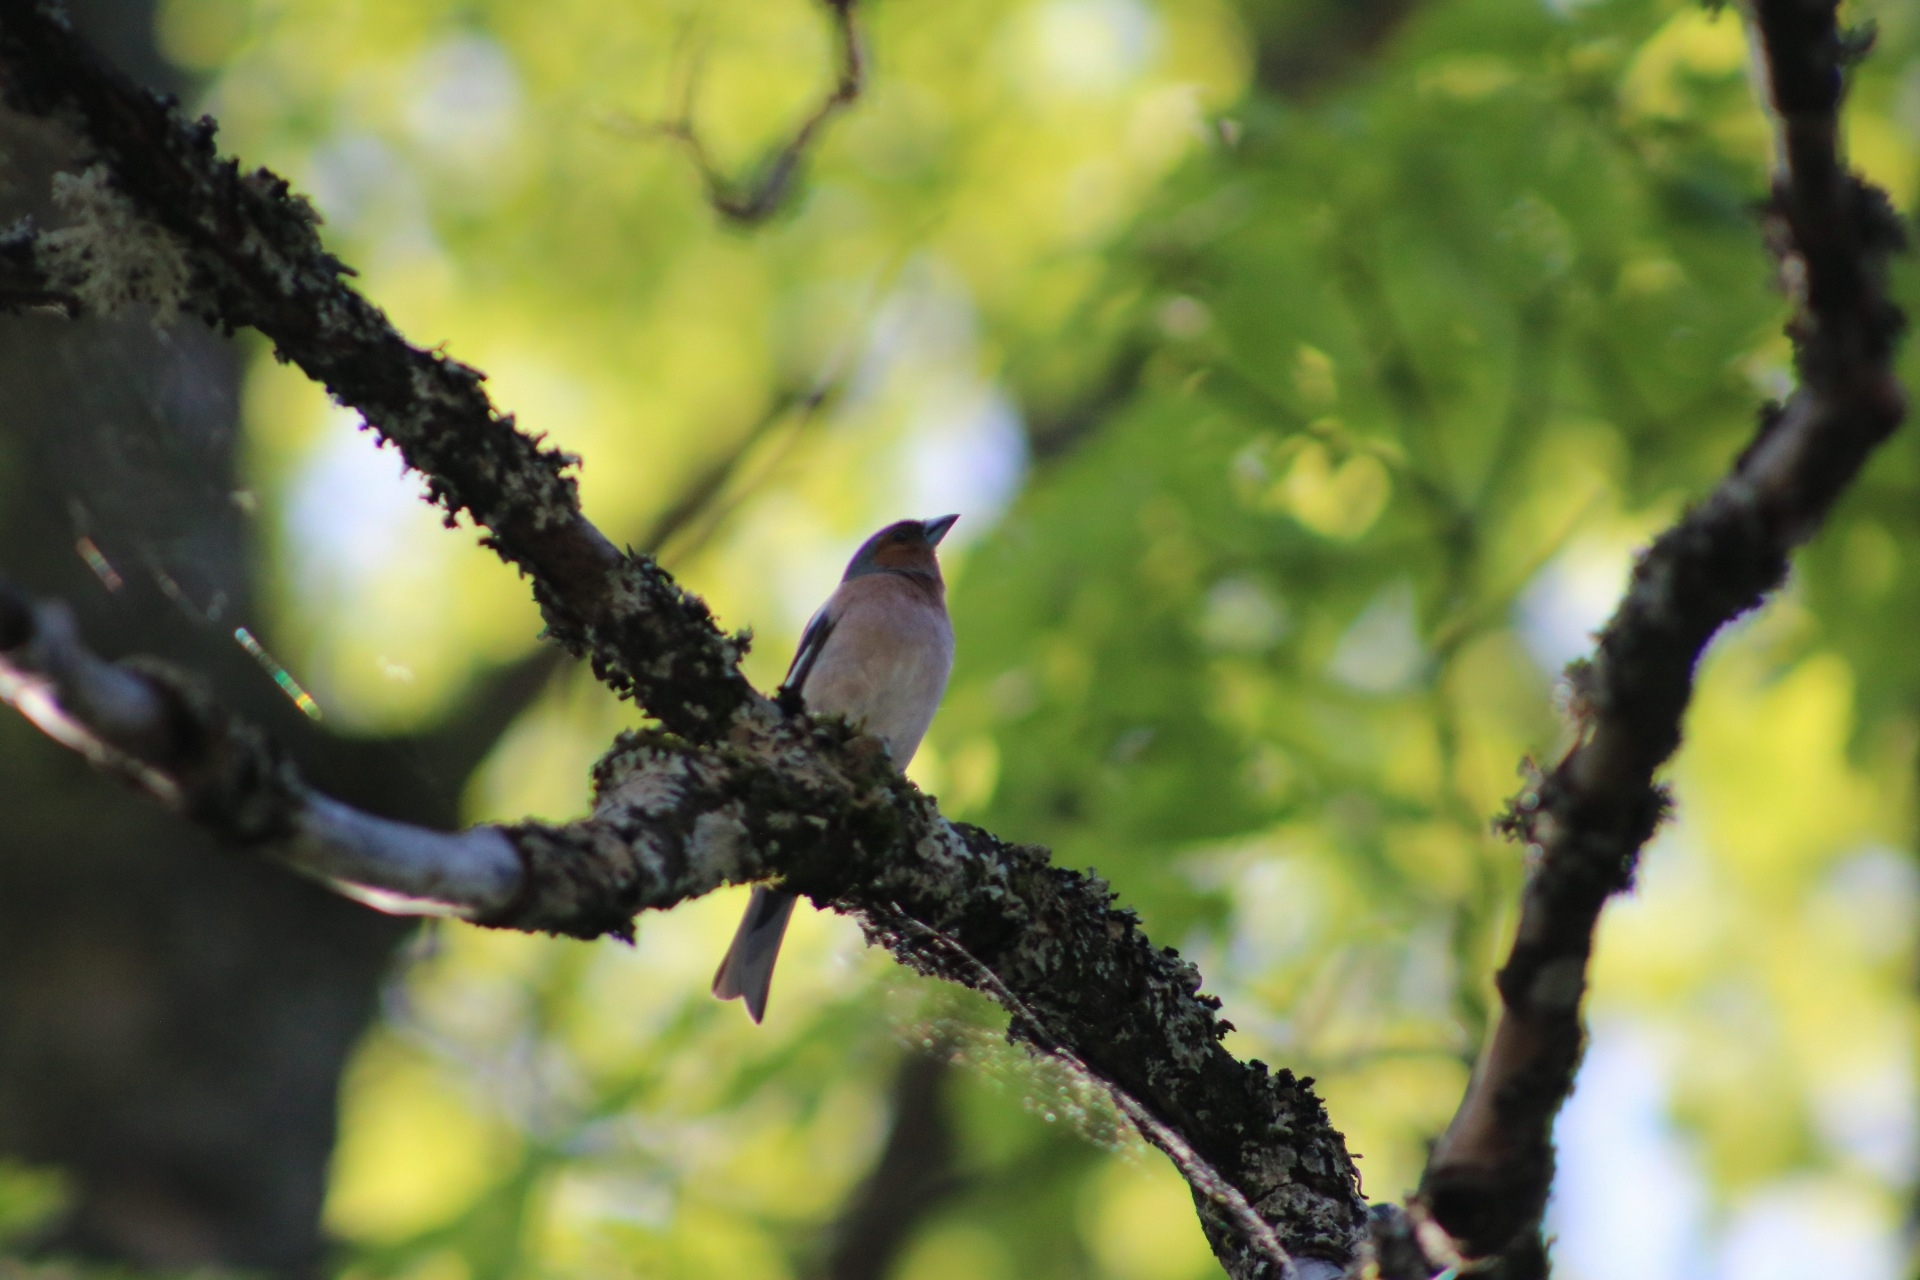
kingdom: Animalia
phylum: Chordata
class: Aves
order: Passeriformes
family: Fringillidae
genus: Fringilla
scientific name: Fringilla coelebs
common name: Common chaffinch
